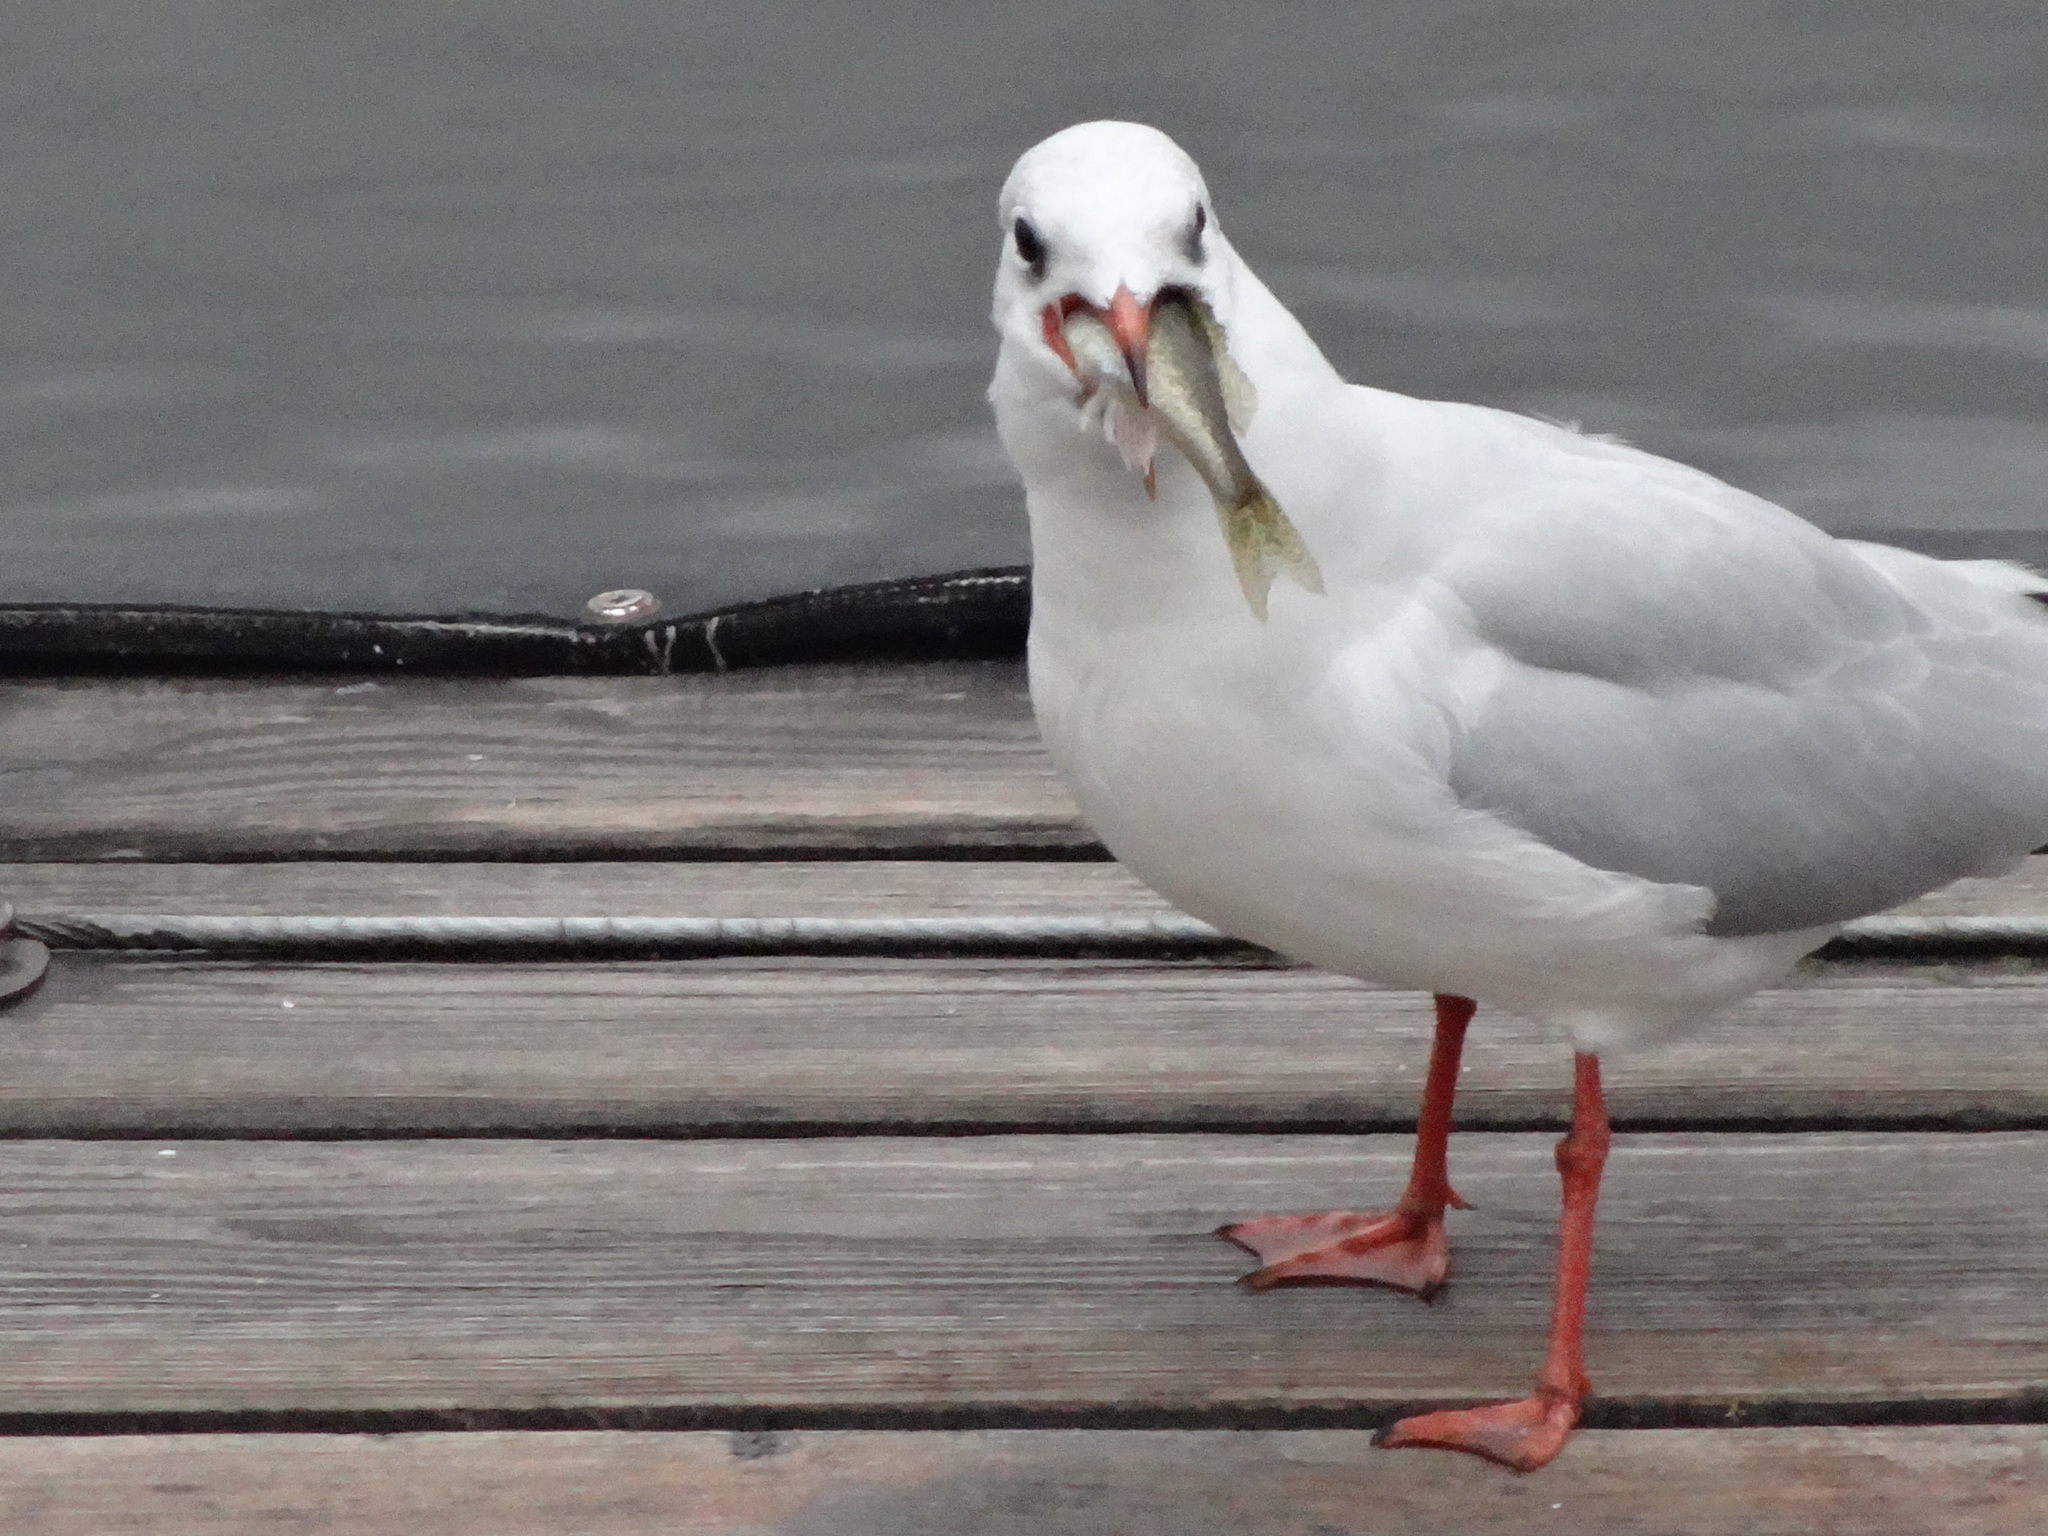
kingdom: Animalia
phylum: Chordata
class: Aves
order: Charadriiformes
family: Laridae
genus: Chroicocephalus
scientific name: Chroicocephalus ridibundus
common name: Black-headed gull
